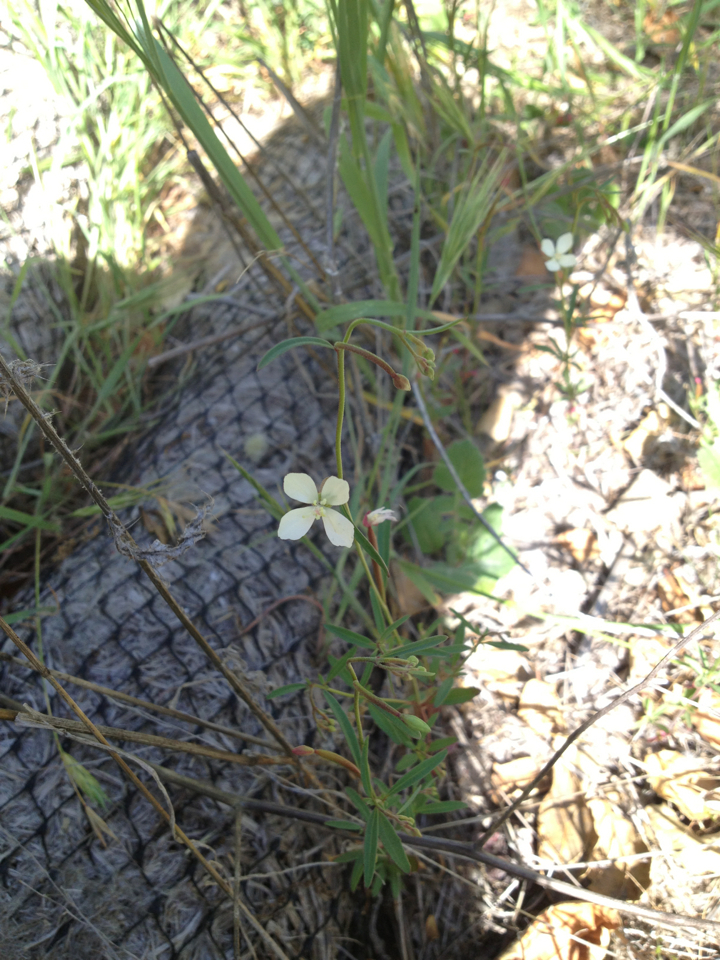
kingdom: Plantae
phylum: Tracheophyta
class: Magnoliopsida
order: Myrtales
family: Onagraceae
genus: Clarkia
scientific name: Clarkia epilobioides
